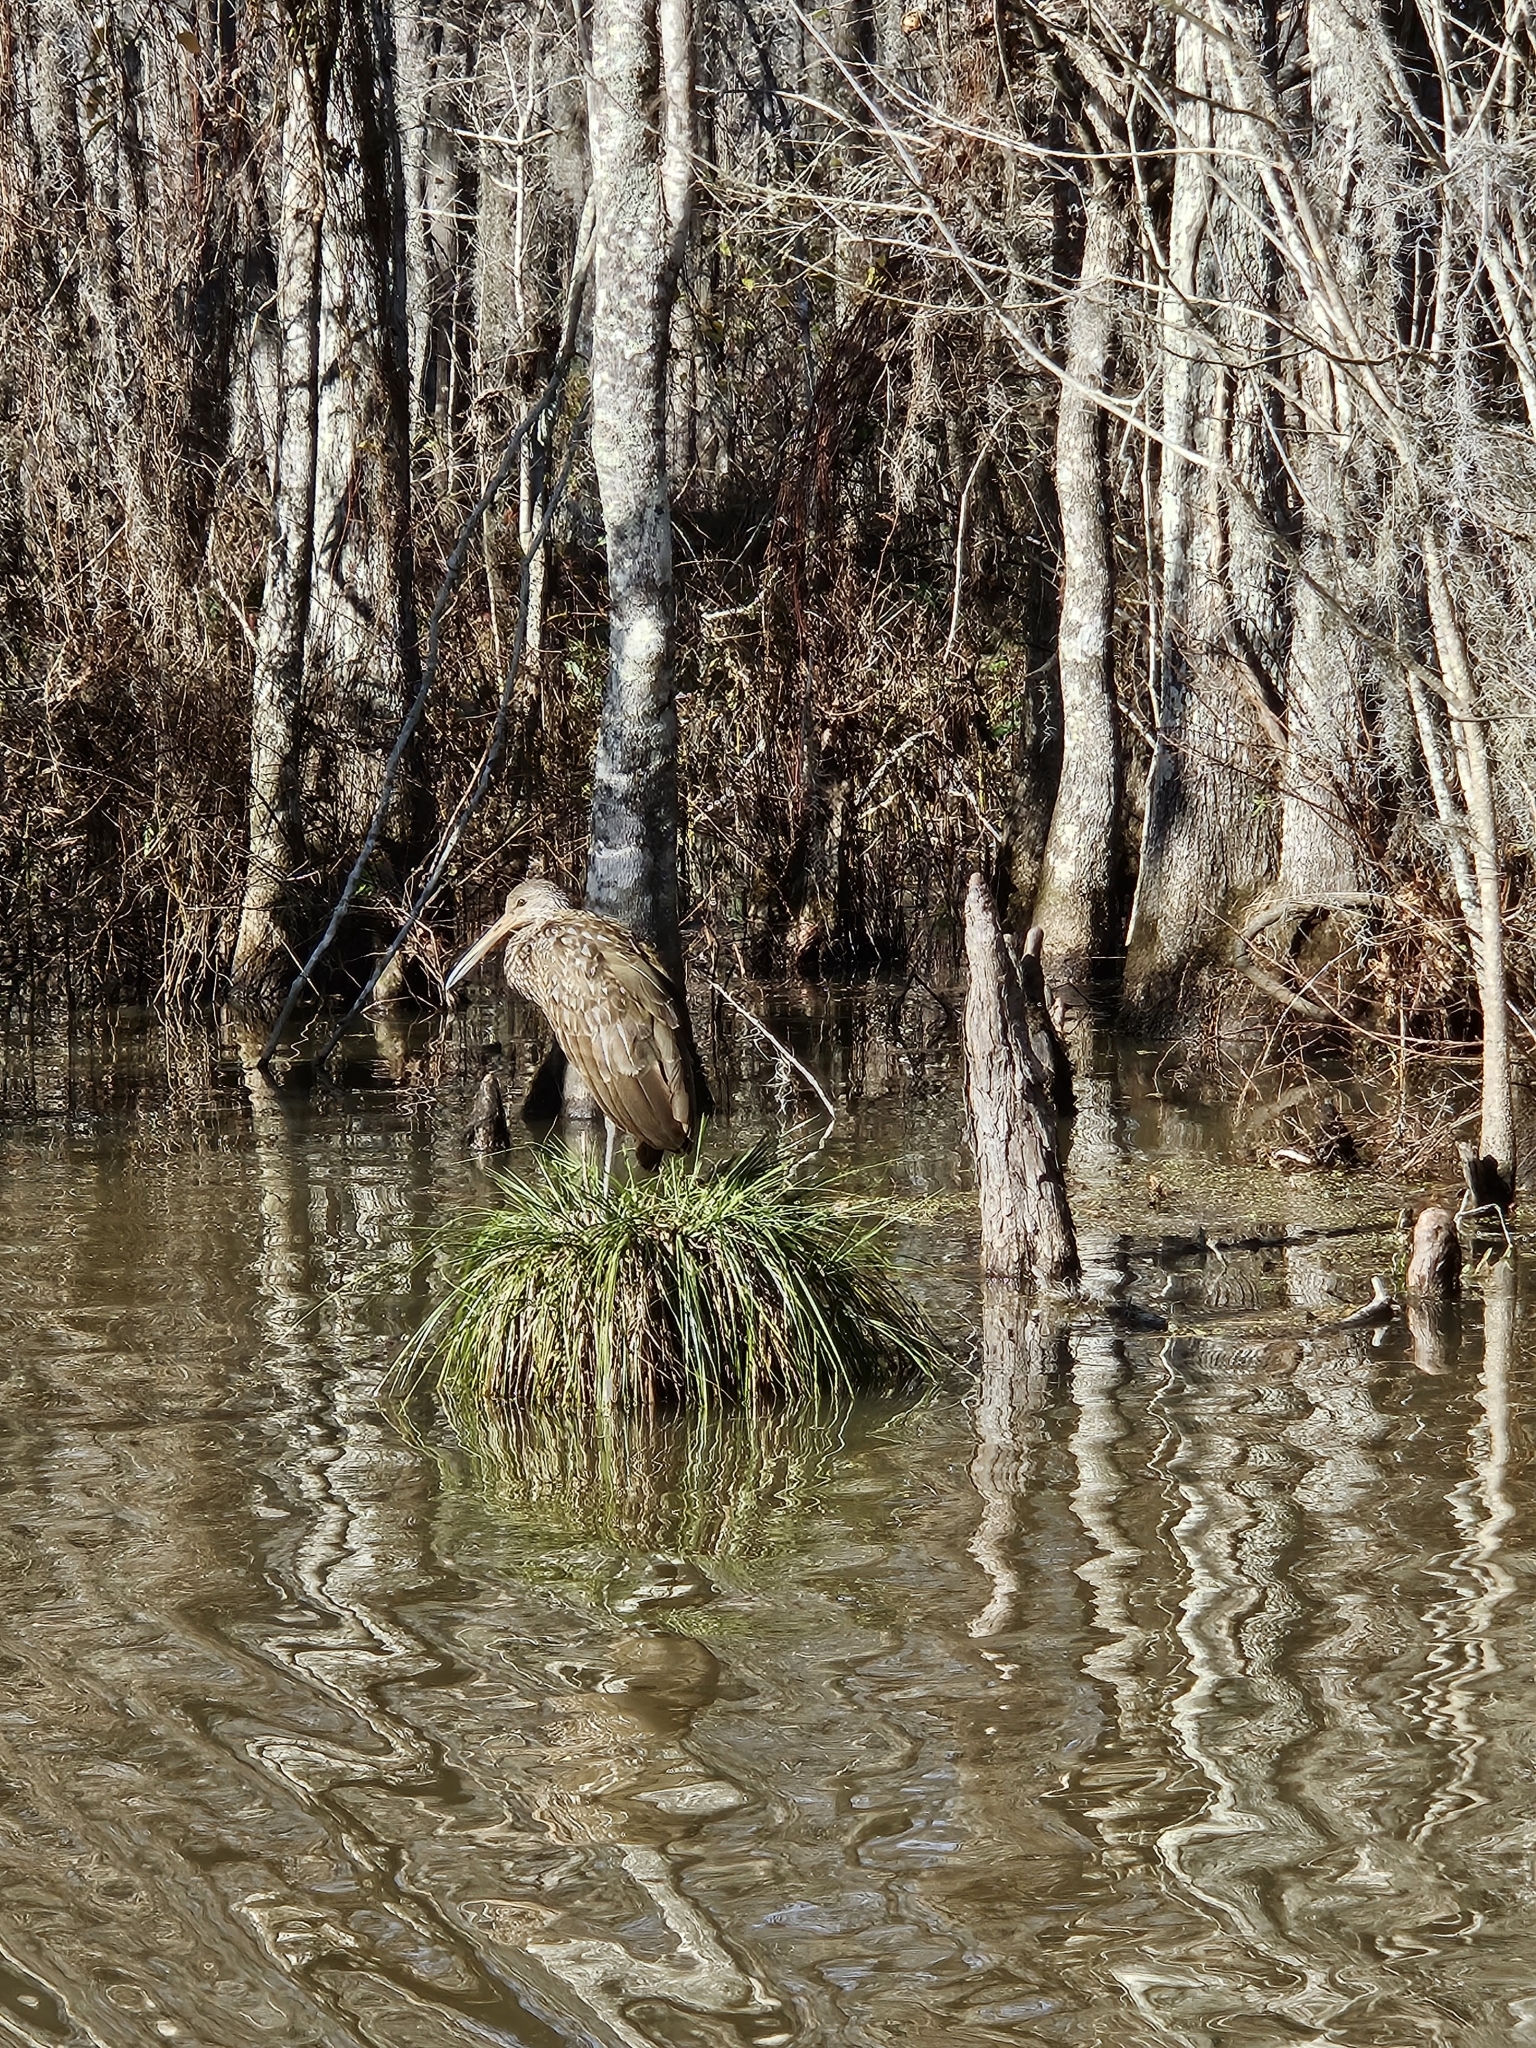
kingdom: Animalia
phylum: Chordata
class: Aves
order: Gruiformes
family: Aramidae
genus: Aramus
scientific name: Aramus guarauna
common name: Limpkin
